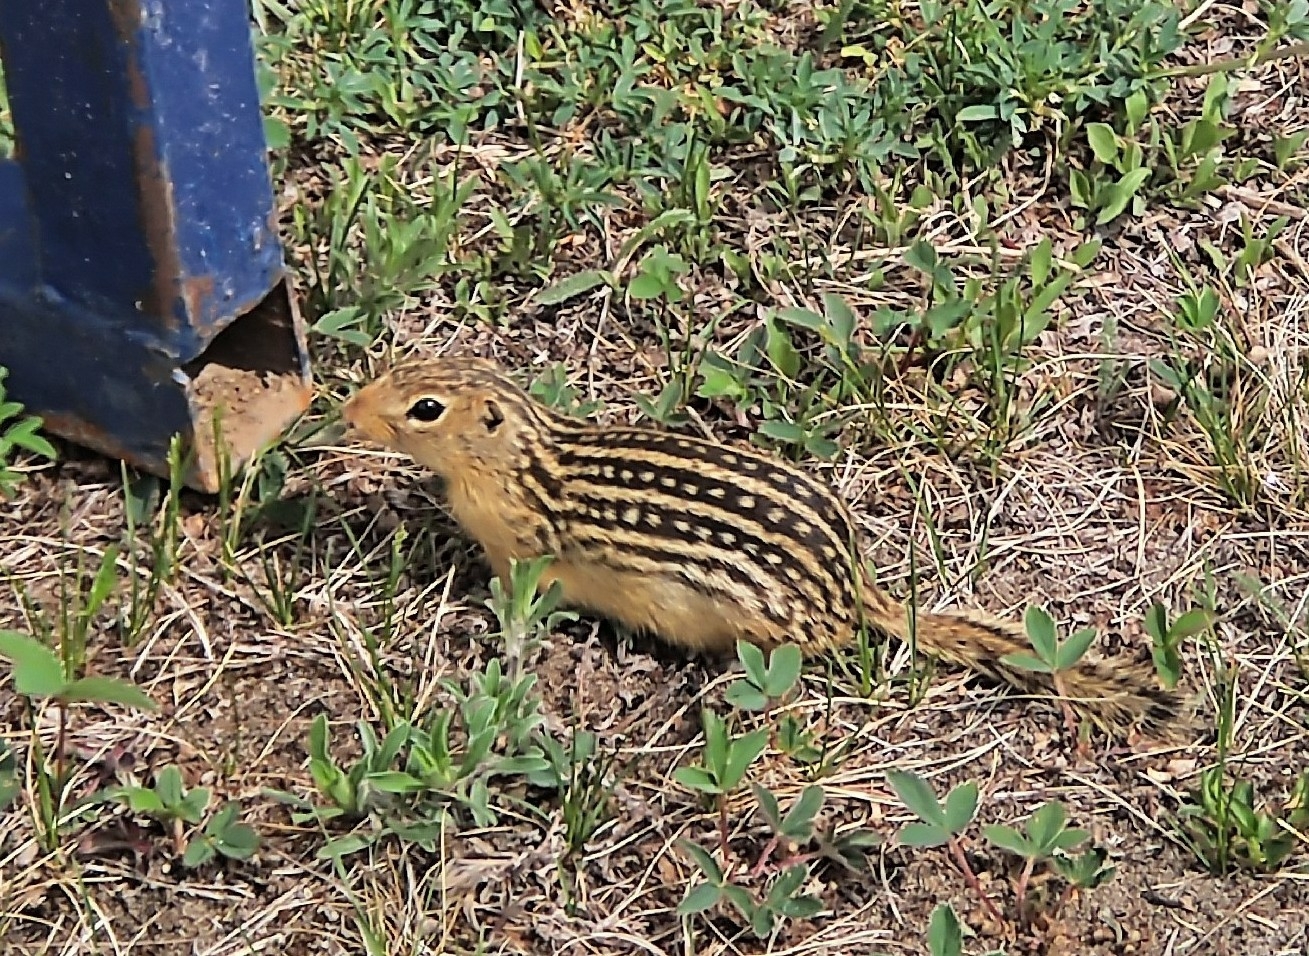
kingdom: Animalia
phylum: Chordata
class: Mammalia
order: Rodentia
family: Sciuridae
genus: Ictidomys
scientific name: Ictidomys tridecemlineatus
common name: Thirteen-lined ground squirrel
